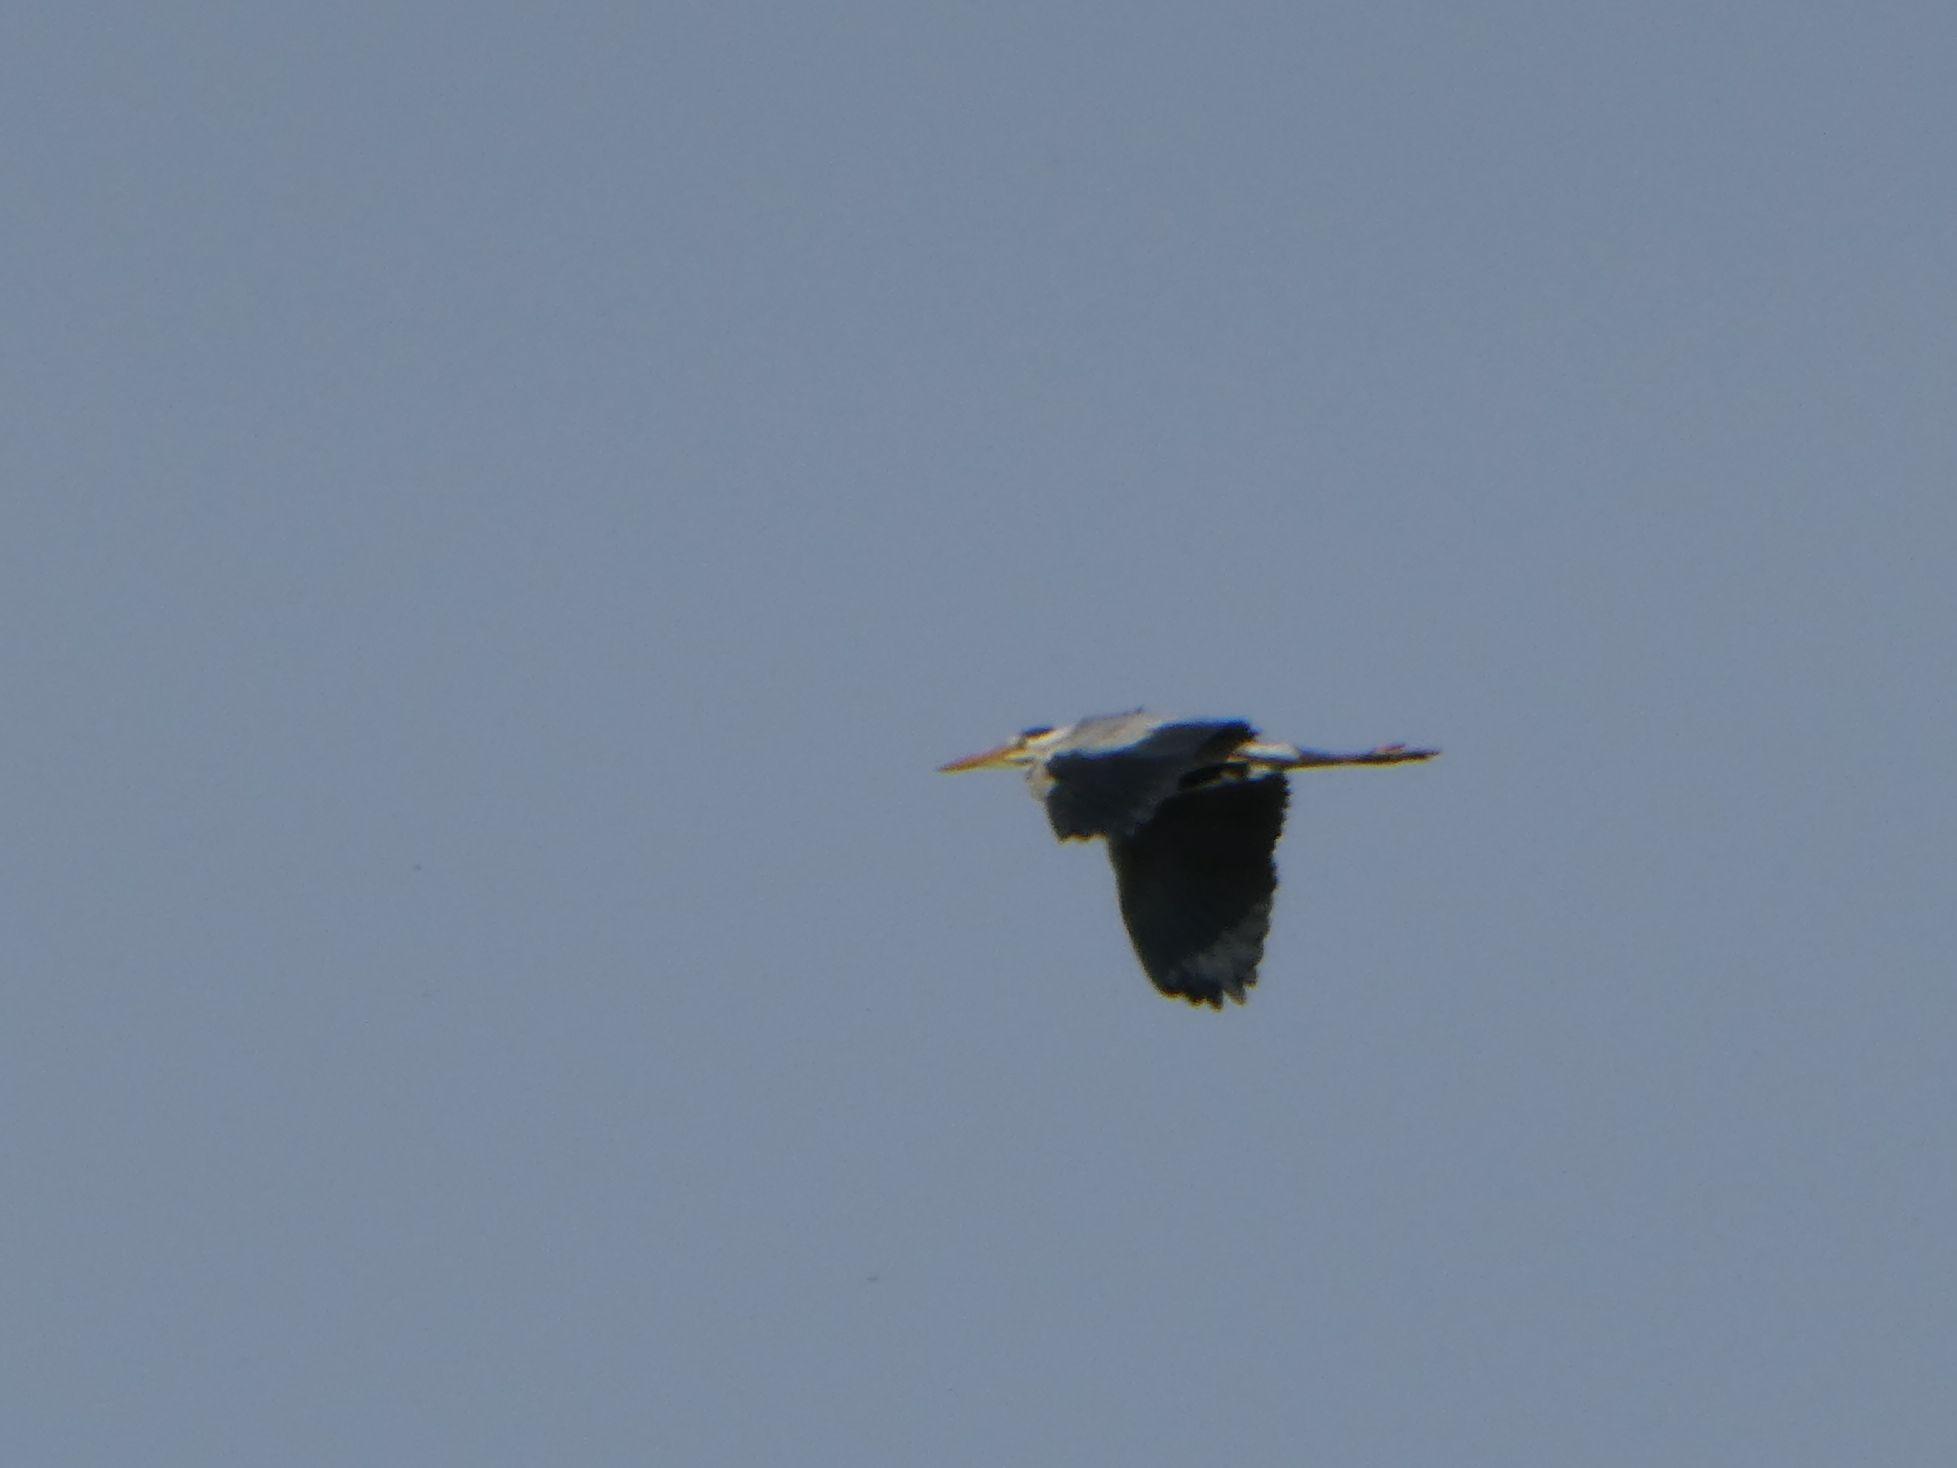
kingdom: Animalia
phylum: Chordata
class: Aves
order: Pelecaniformes
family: Ardeidae
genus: Ardea
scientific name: Ardea cinerea
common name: Grey heron
